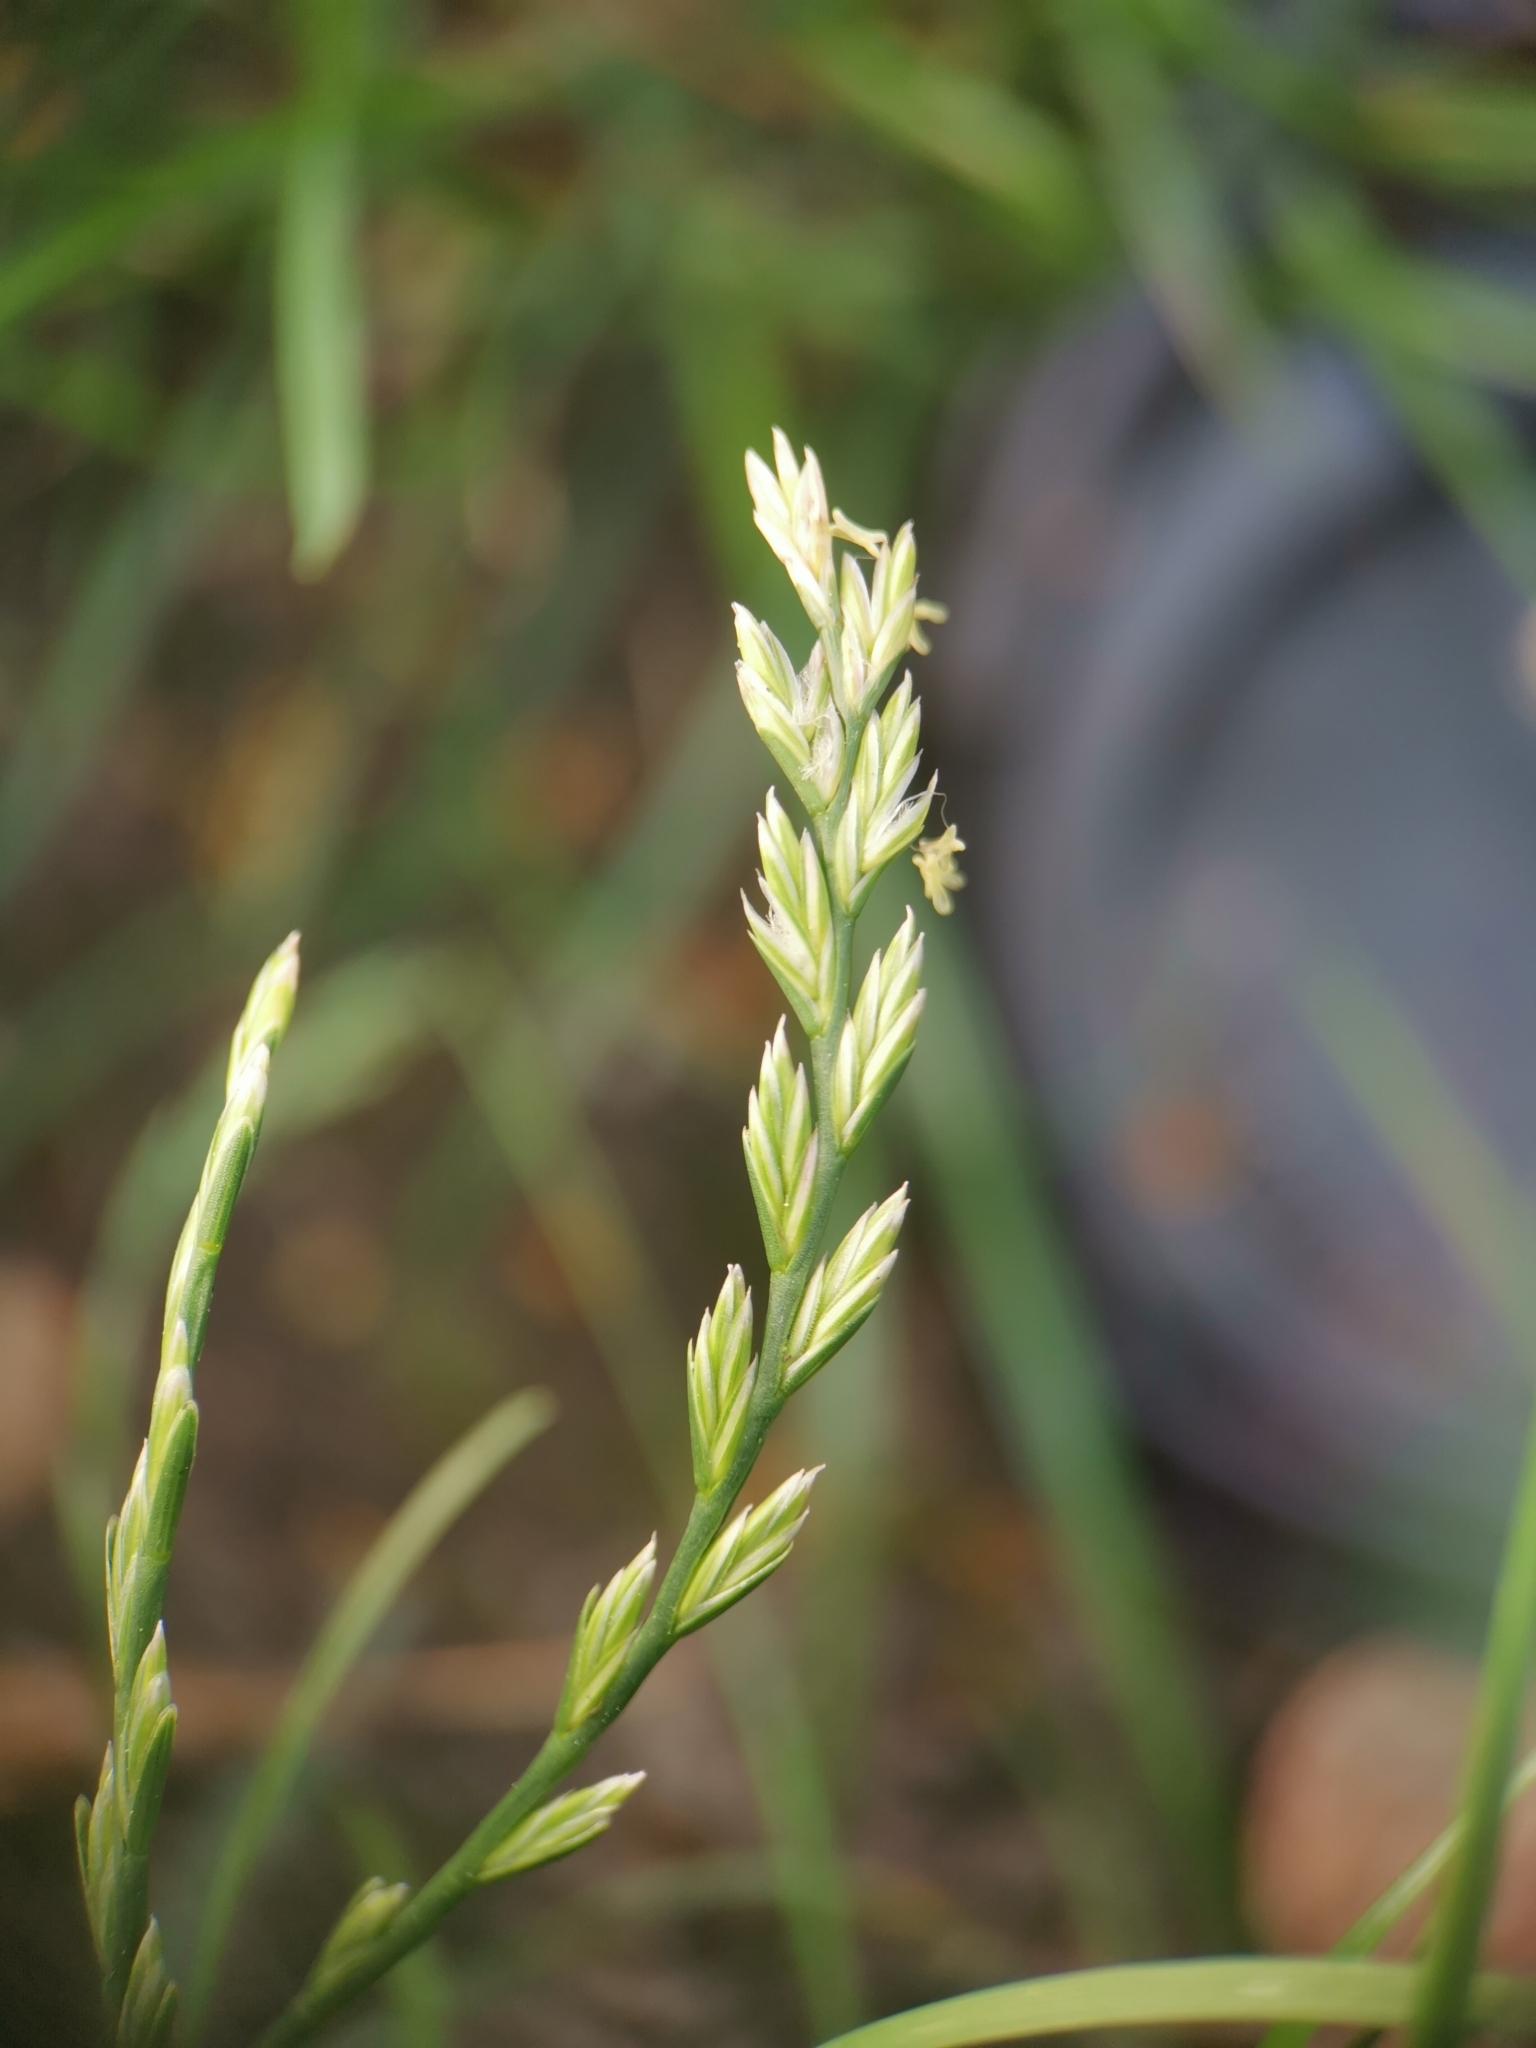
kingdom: Plantae
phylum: Tracheophyta
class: Liliopsida
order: Poales
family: Poaceae
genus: Lolium
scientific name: Lolium perenne
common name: Perennial ryegrass
